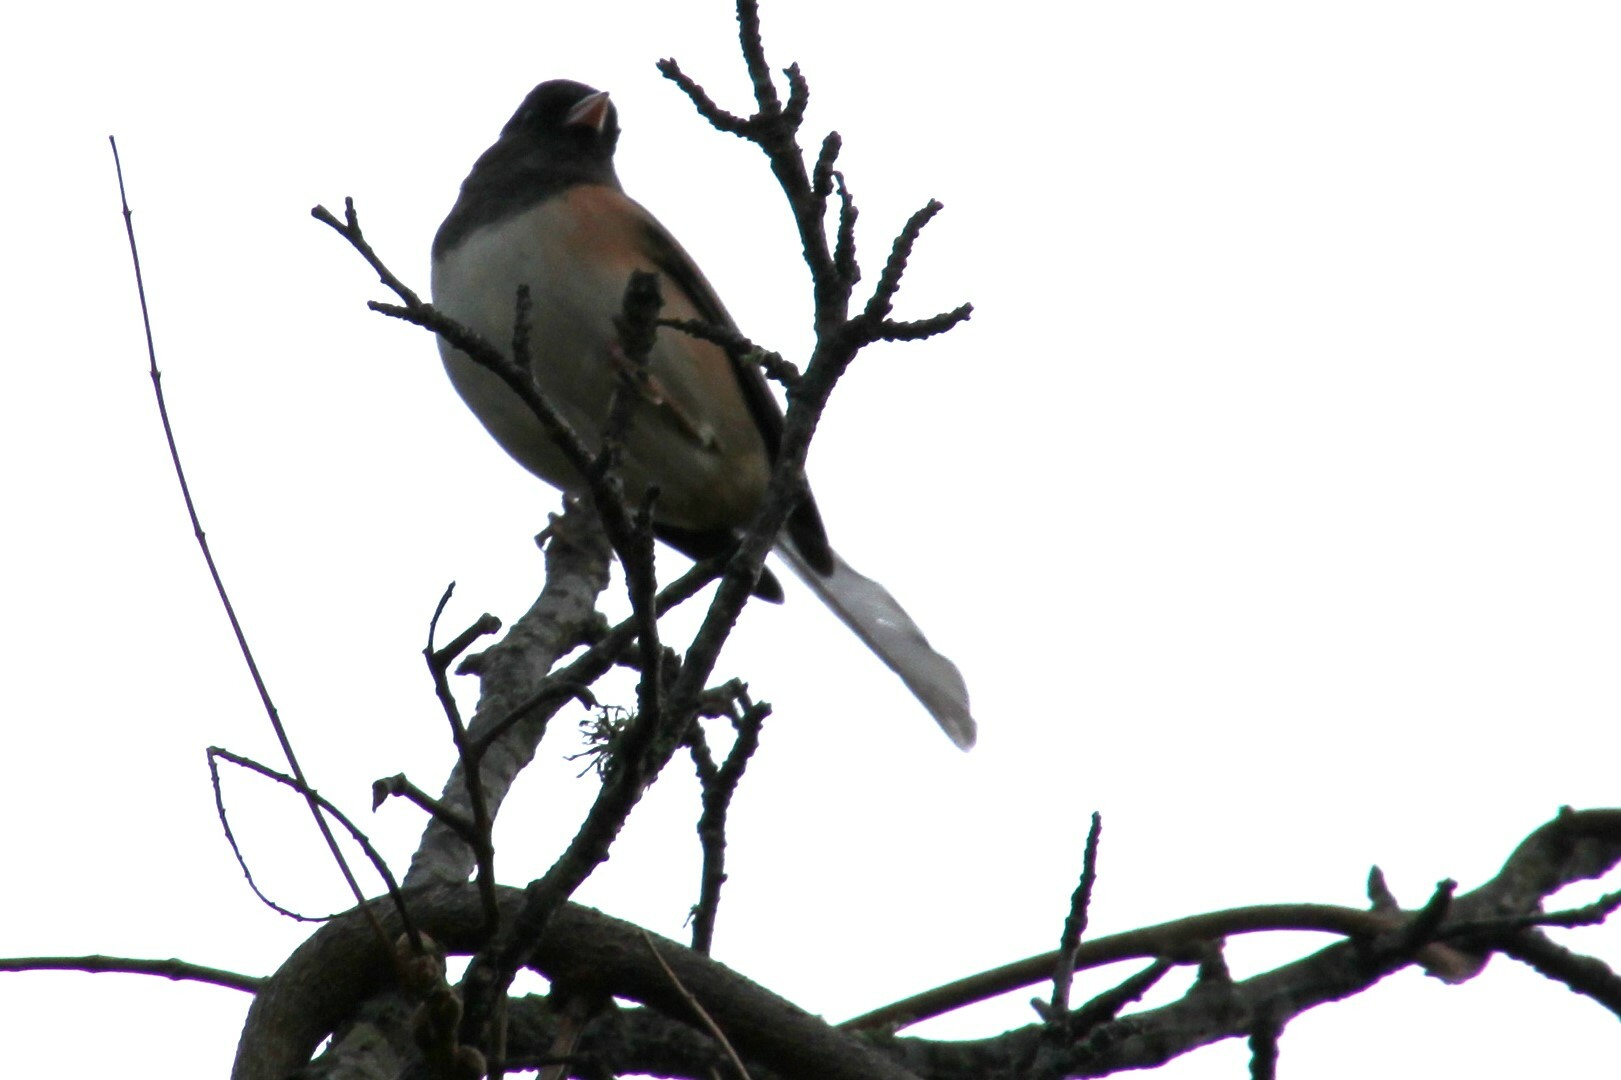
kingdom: Animalia
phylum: Chordata
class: Aves
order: Passeriformes
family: Passerellidae
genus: Junco
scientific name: Junco hyemalis
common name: Dark-eyed junco
